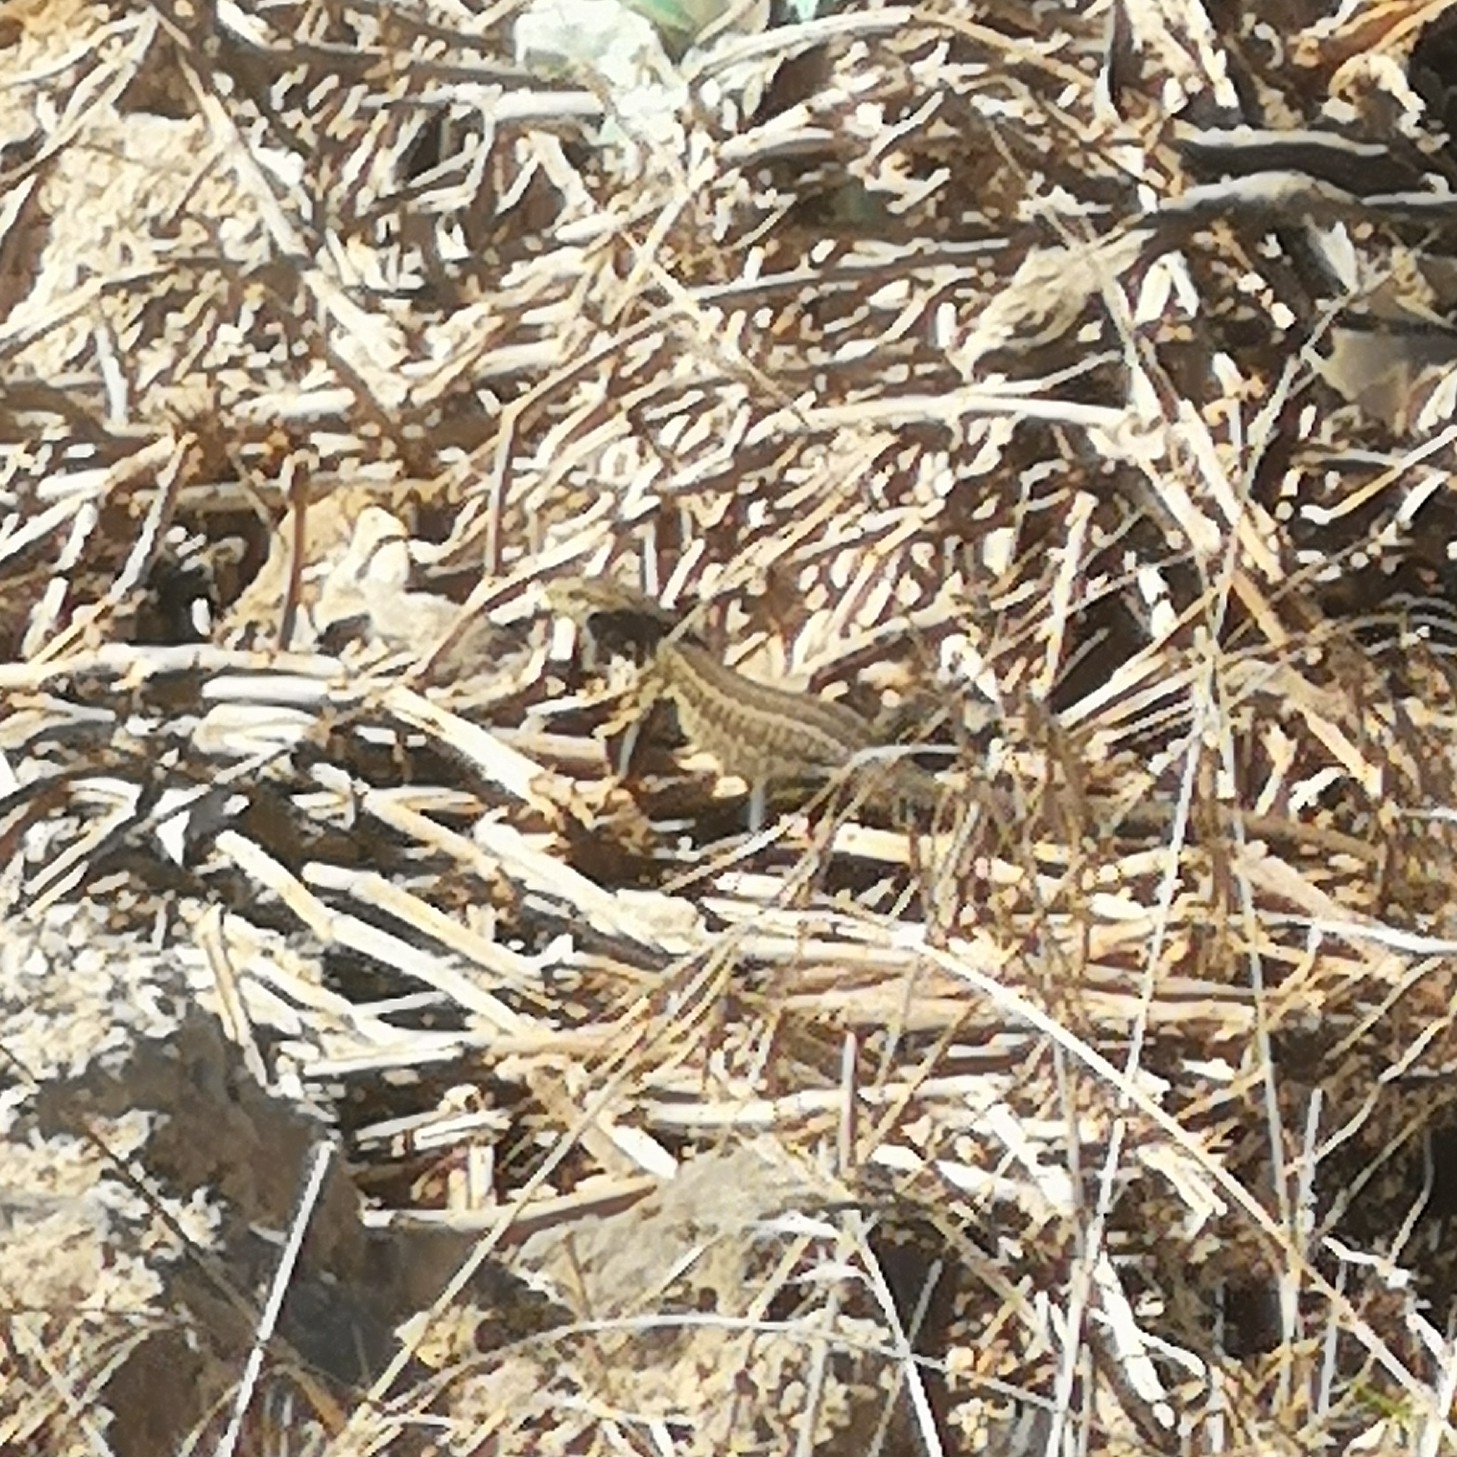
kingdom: Animalia
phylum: Chordata
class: Squamata
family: Lacertidae
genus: Gallotia
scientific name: Gallotia galloti
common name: Gallot's lizard
